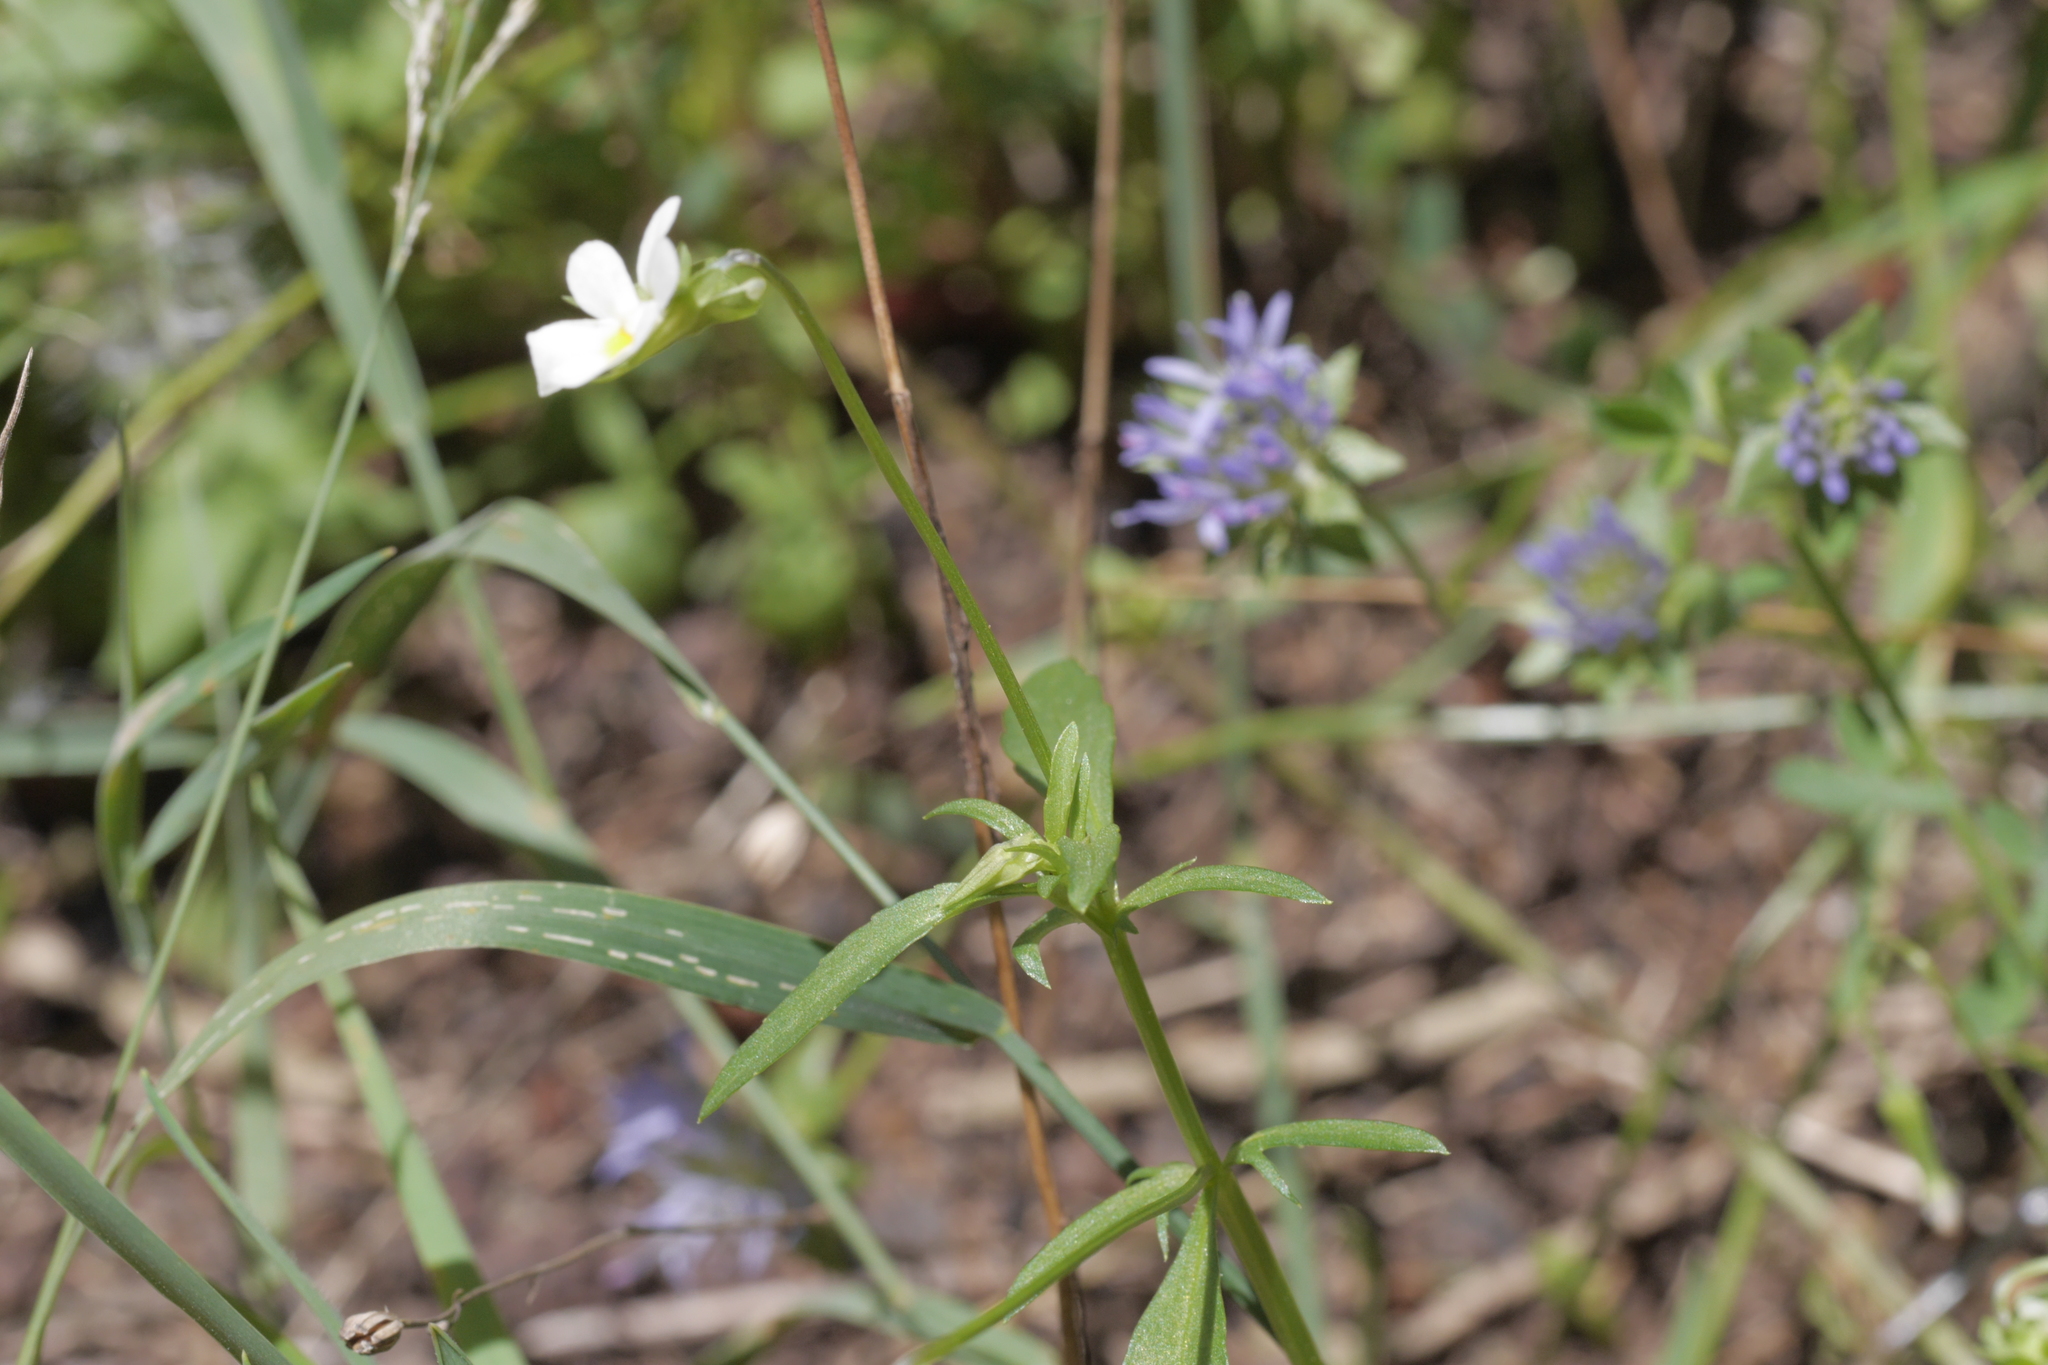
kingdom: Plantae
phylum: Tracheophyta
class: Magnoliopsida
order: Malpighiales
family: Violaceae
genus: Viola
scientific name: Viola arvensis
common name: Field pansy
